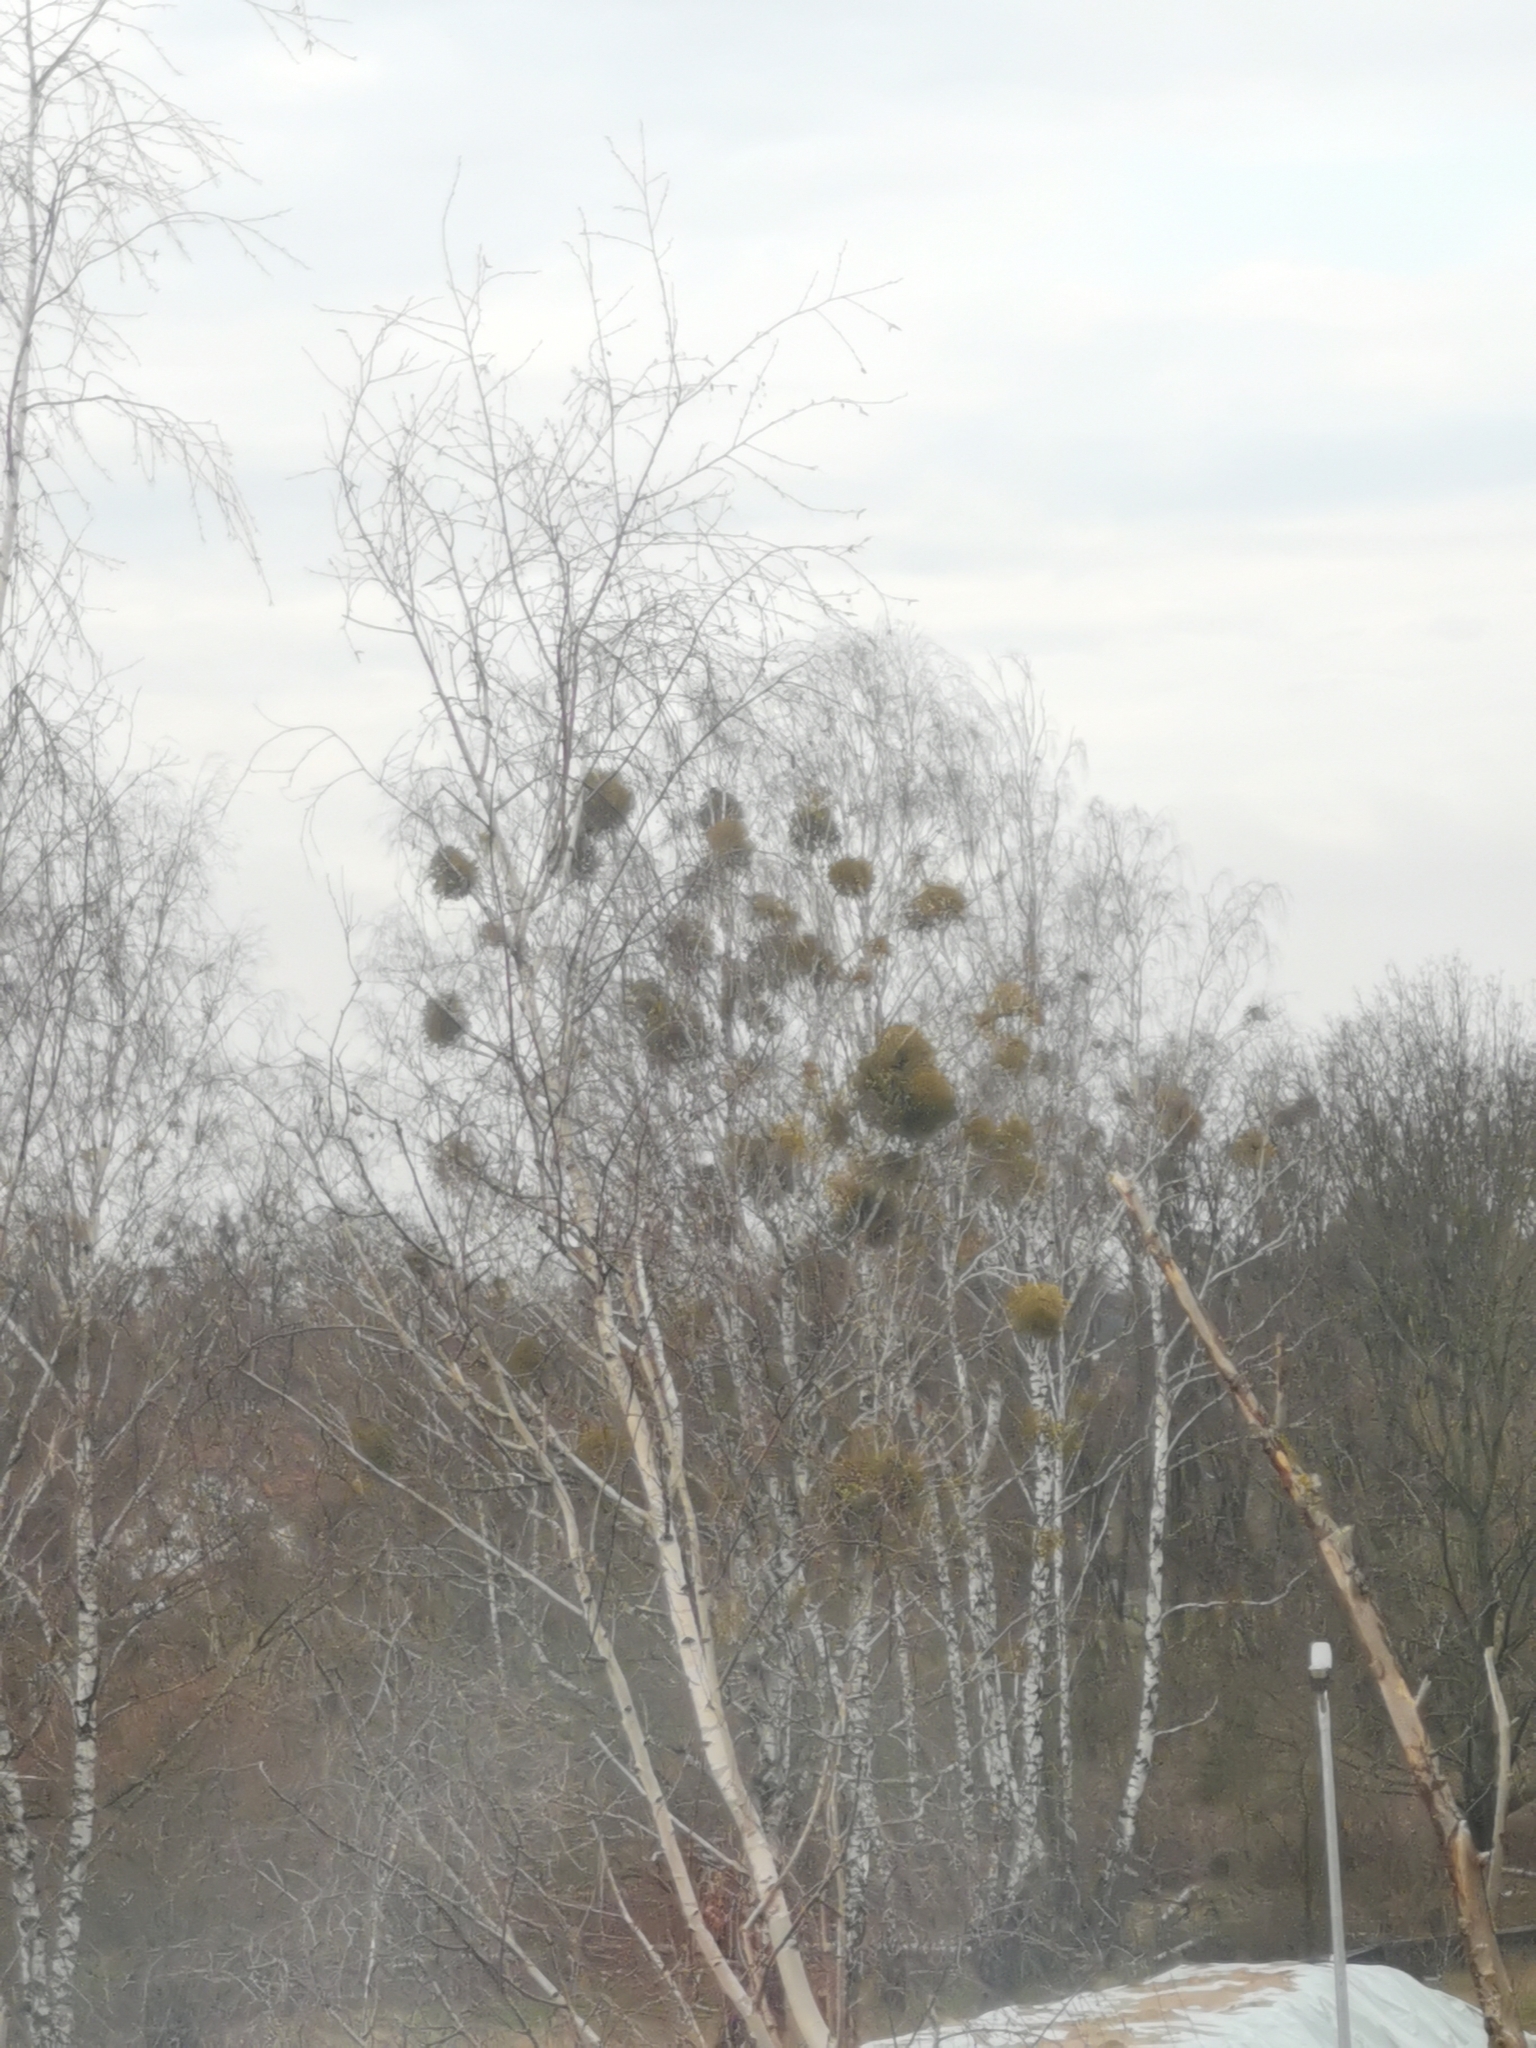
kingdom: Plantae
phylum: Tracheophyta
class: Magnoliopsida
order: Santalales
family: Viscaceae
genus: Viscum
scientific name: Viscum album
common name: Mistletoe
